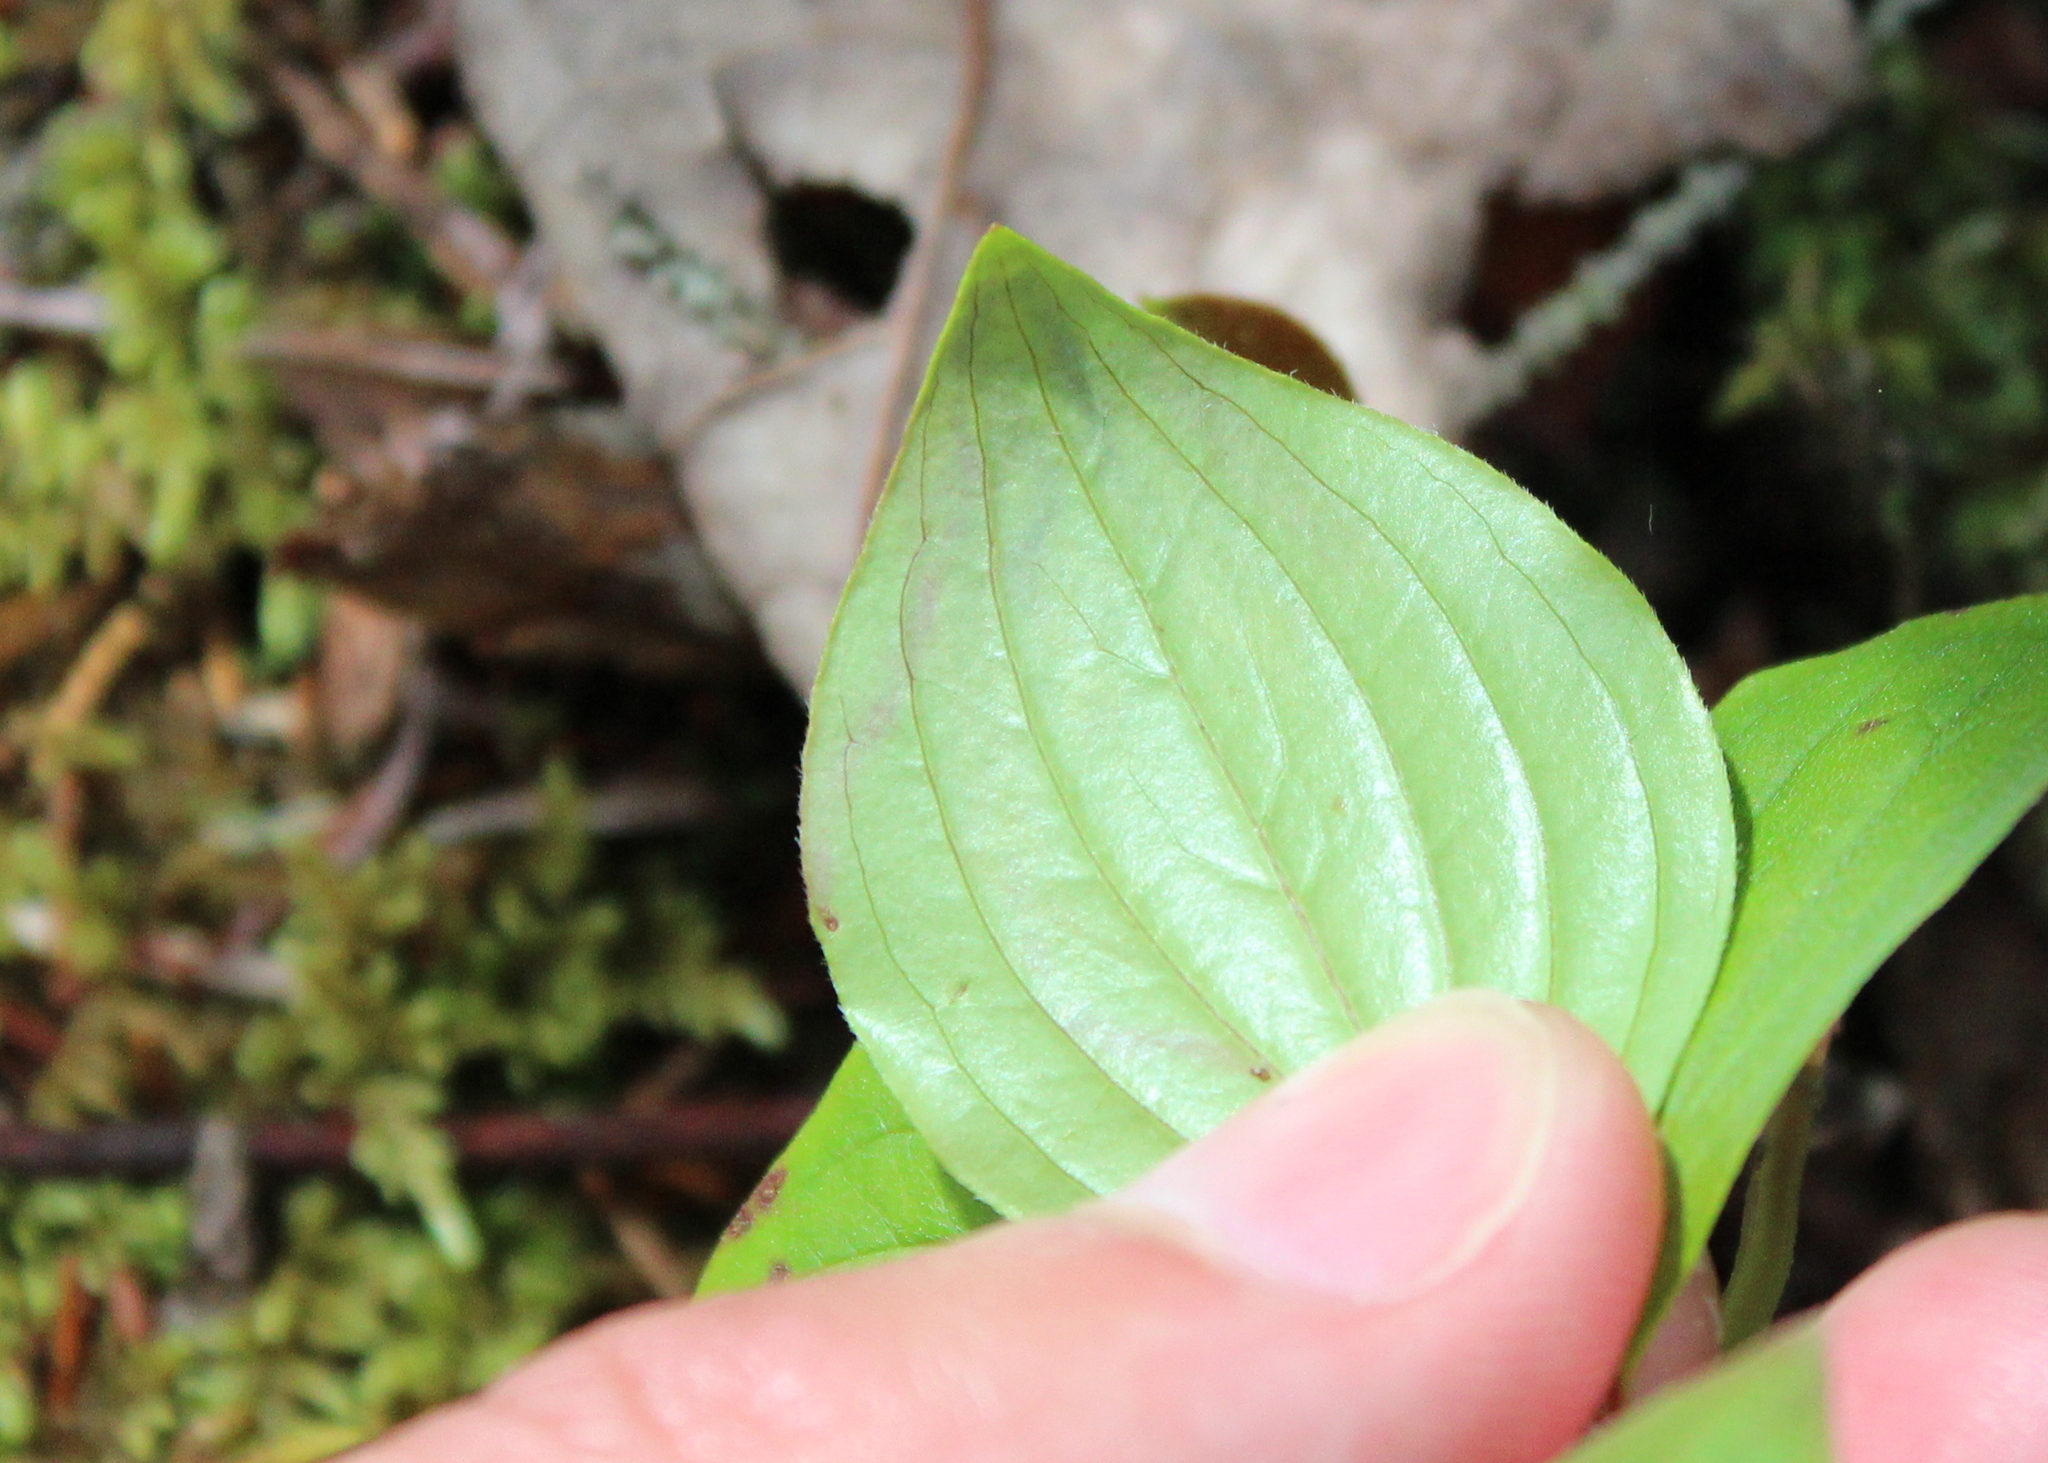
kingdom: Animalia
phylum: Arthropoda
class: Insecta
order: Diptera
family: Agromyzidae
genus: Phytomyza
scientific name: Phytomyza agromyzina
